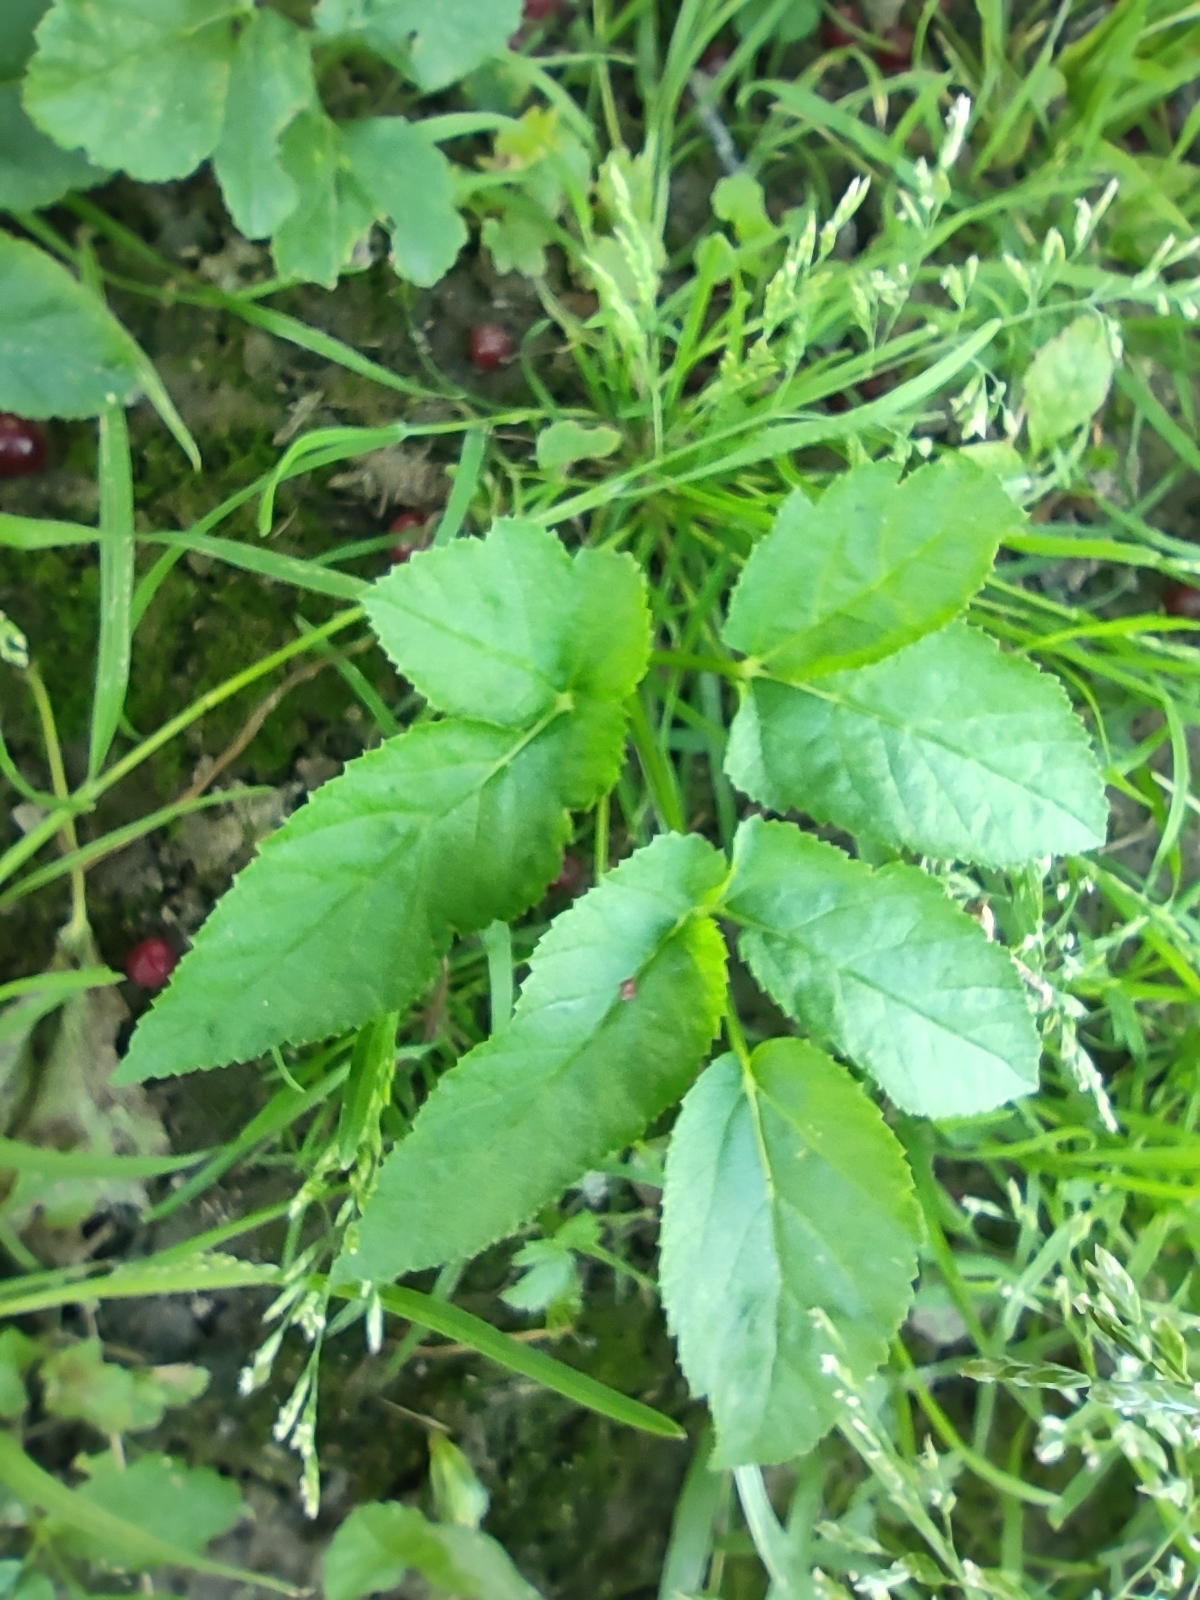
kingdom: Plantae
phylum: Tracheophyta
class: Magnoliopsida
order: Apiales
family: Apiaceae
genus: Aegopodium
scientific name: Aegopodium podagraria
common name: Ground-elder
